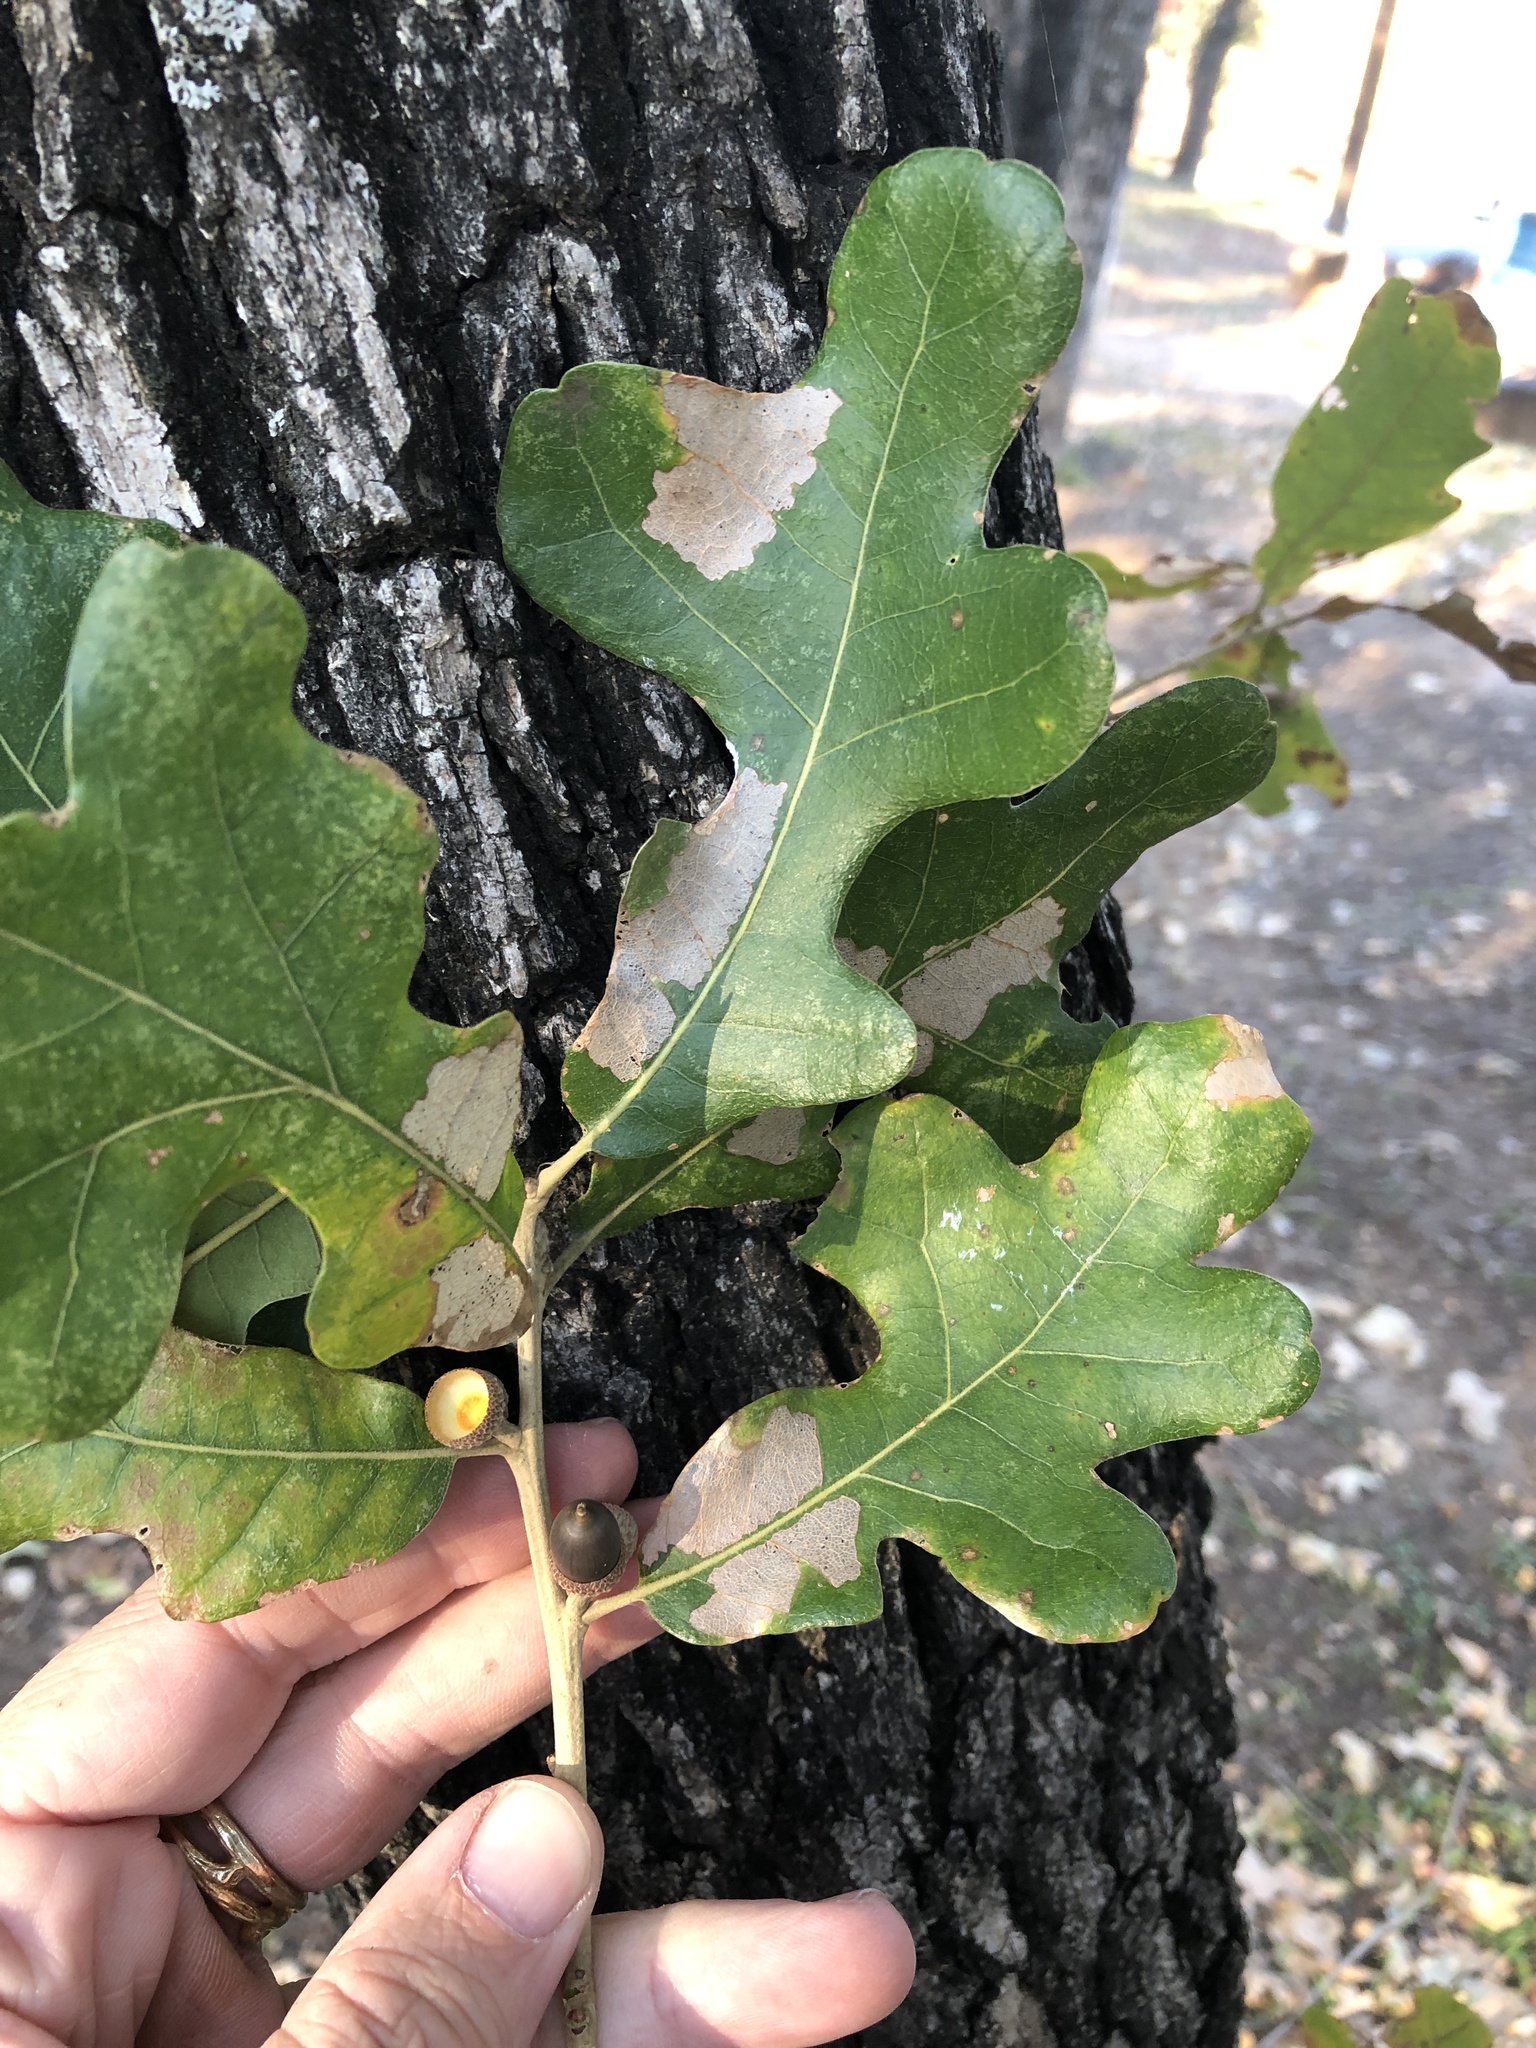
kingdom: Plantae
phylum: Tracheophyta
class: Magnoliopsida
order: Fagales
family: Fagaceae
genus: Quercus
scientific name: Quercus stellata
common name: Post oak
